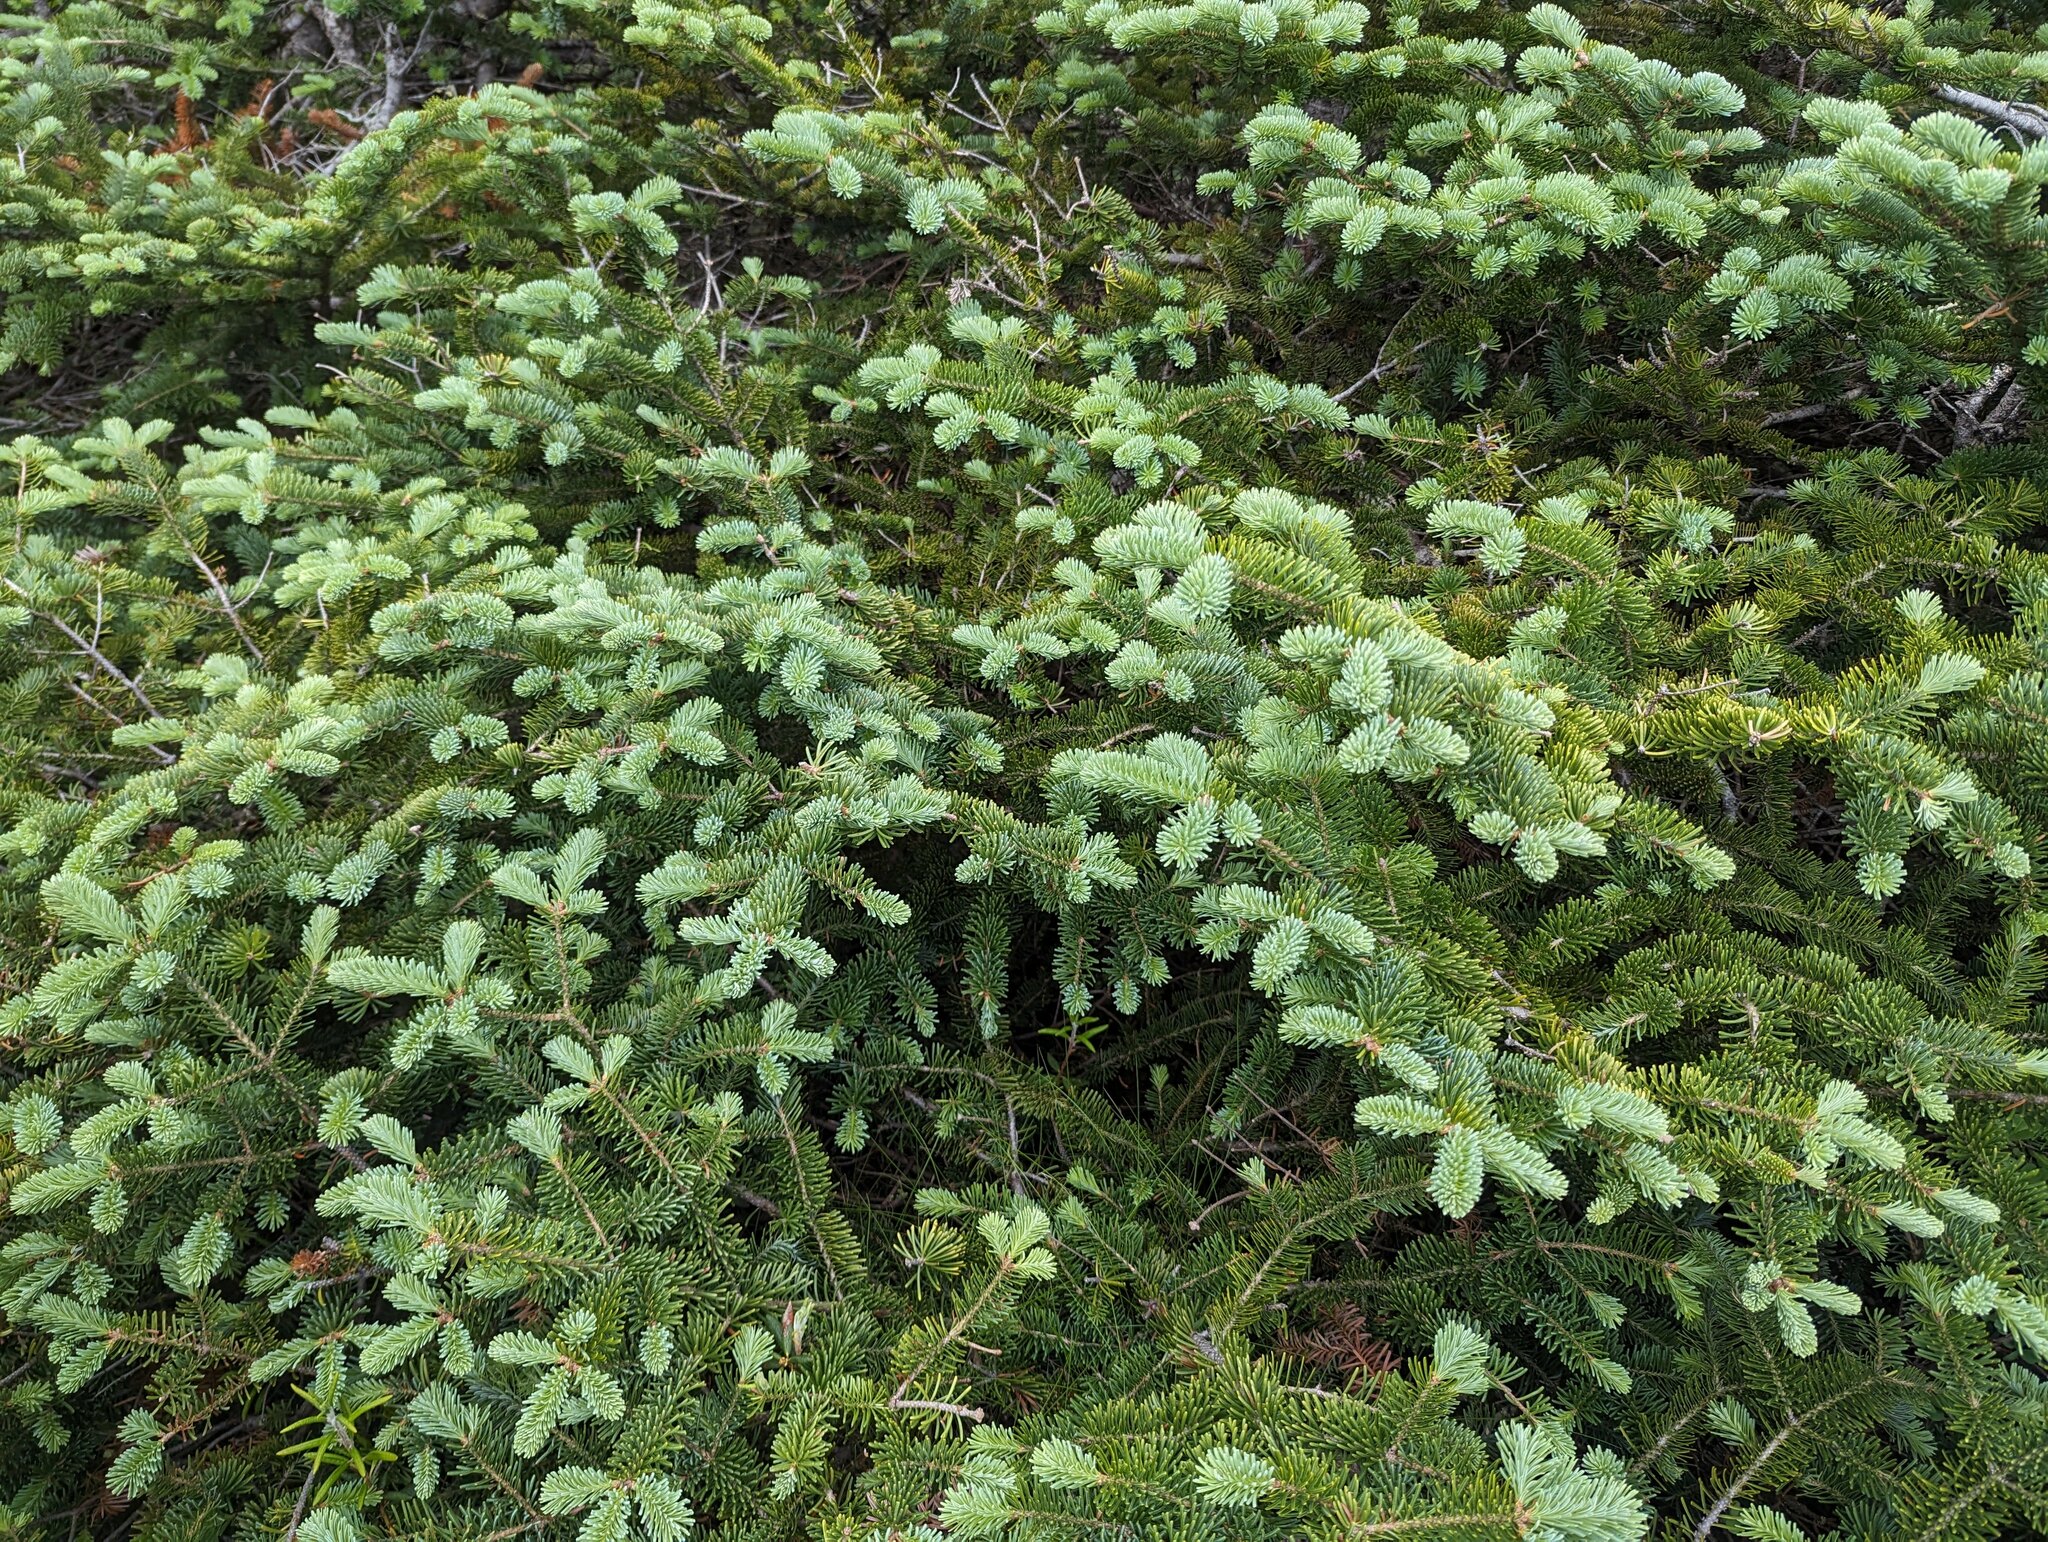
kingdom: Plantae
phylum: Tracheophyta
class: Pinopsida
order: Pinales
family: Pinaceae
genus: Abies
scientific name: Abies balsamea
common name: Balsam fir
